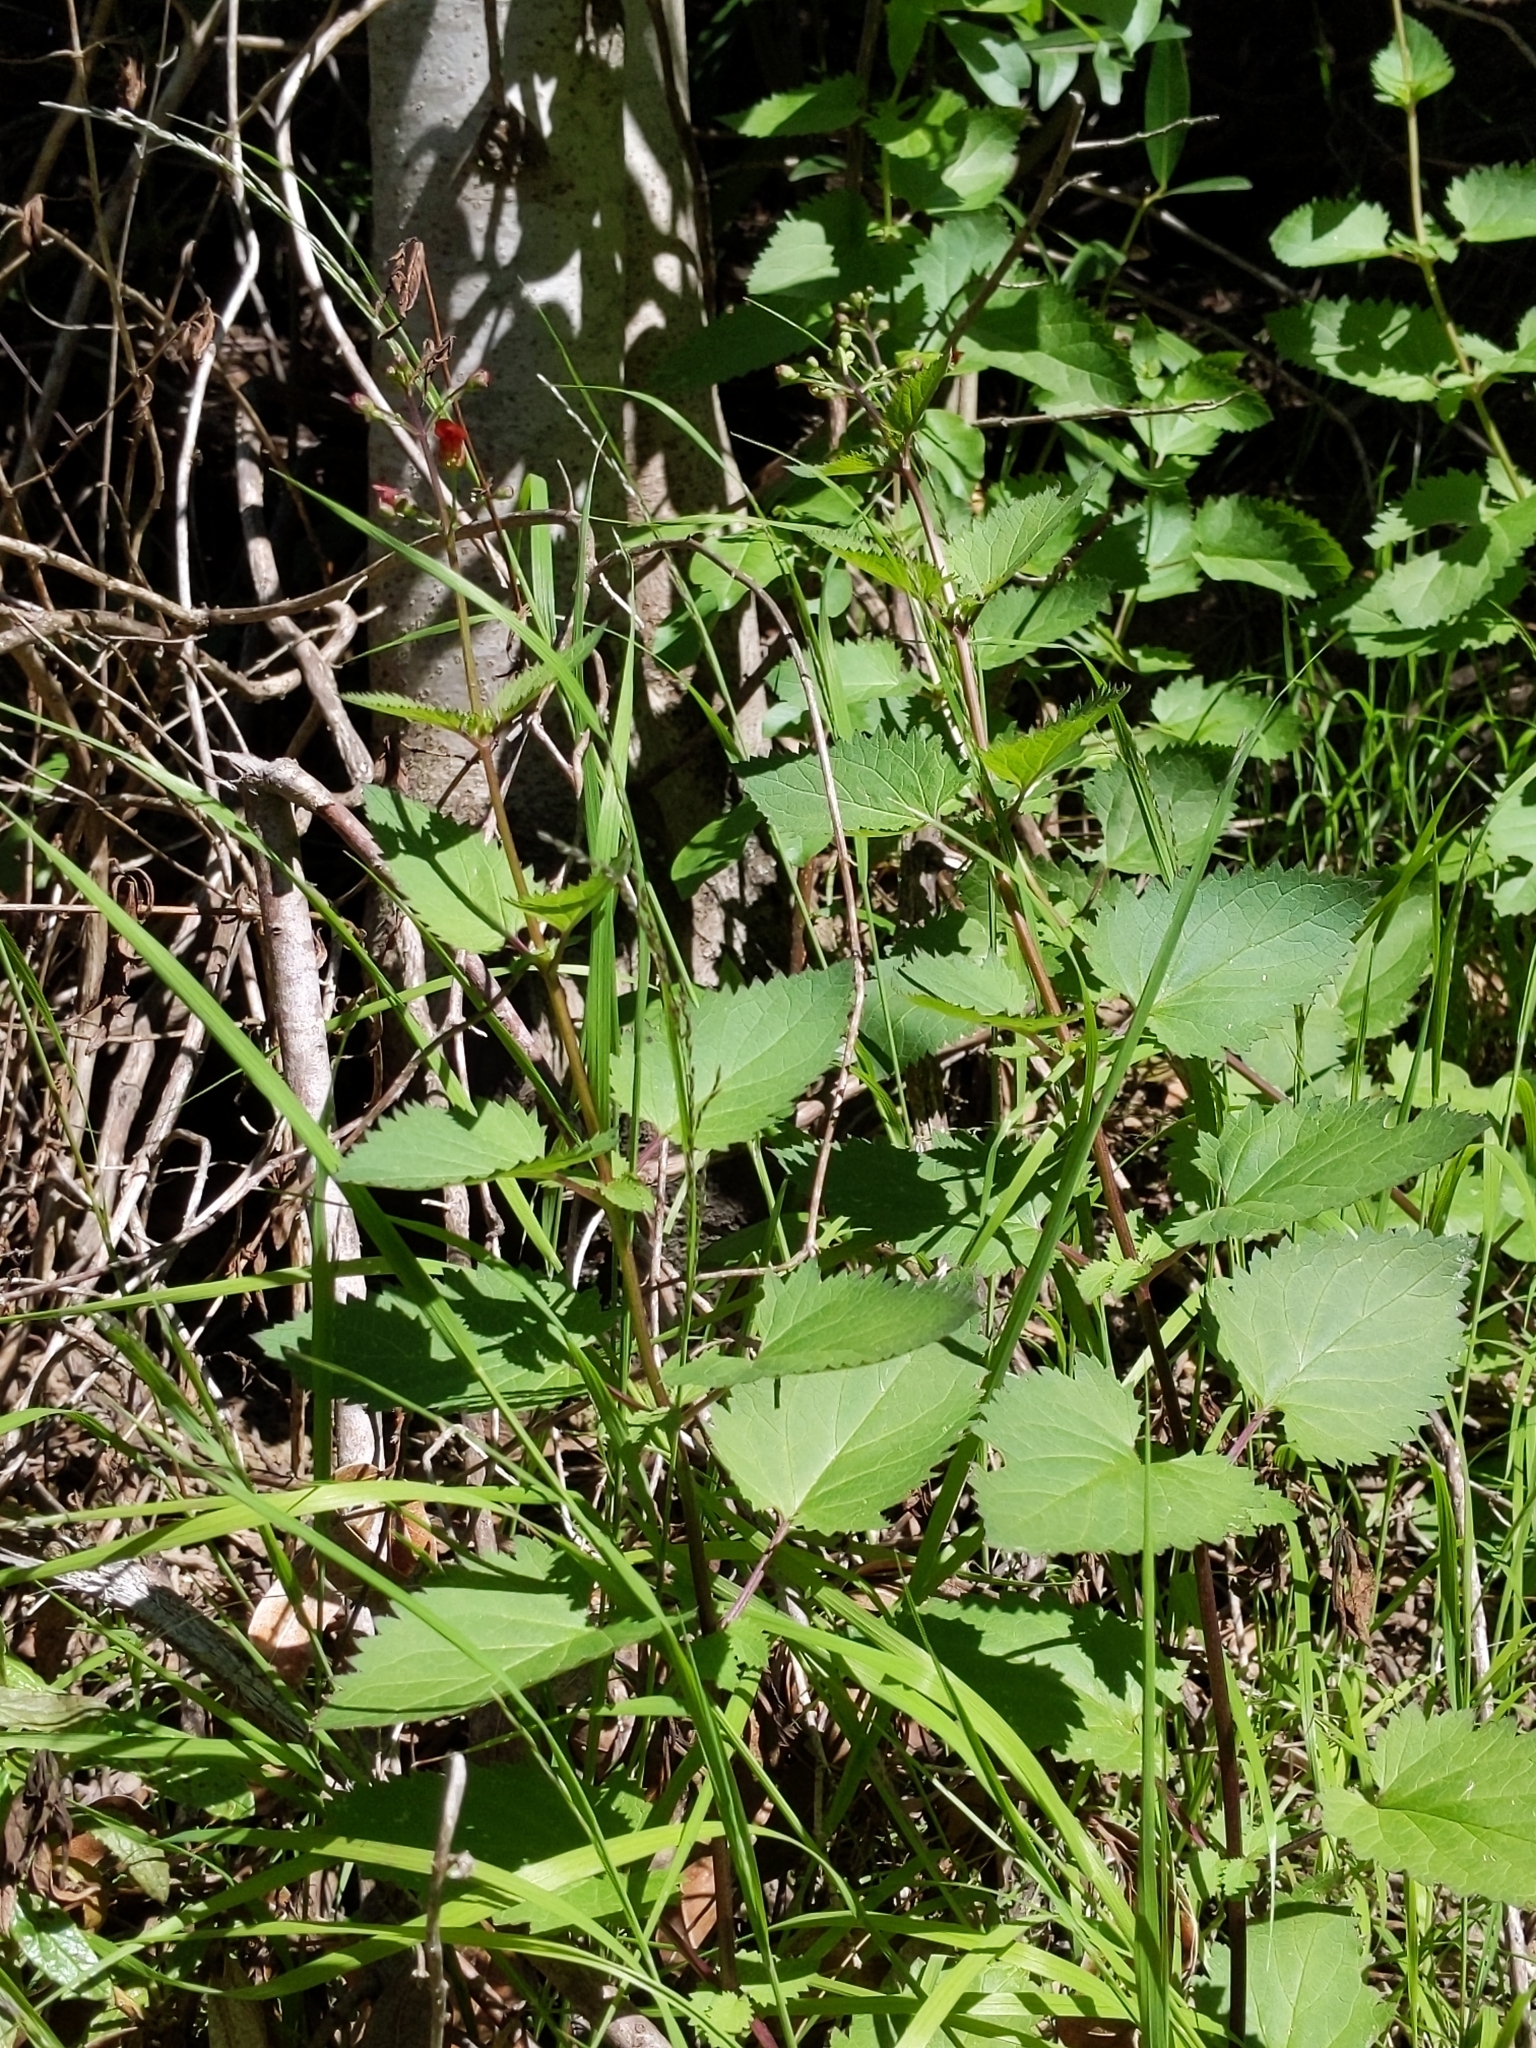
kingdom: Plantae
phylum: Tracheophyta
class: Magnoliopsida
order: Lamiales
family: Scrophulariaceae
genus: Scrophularia
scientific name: Scrophularia californica
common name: California figwort
